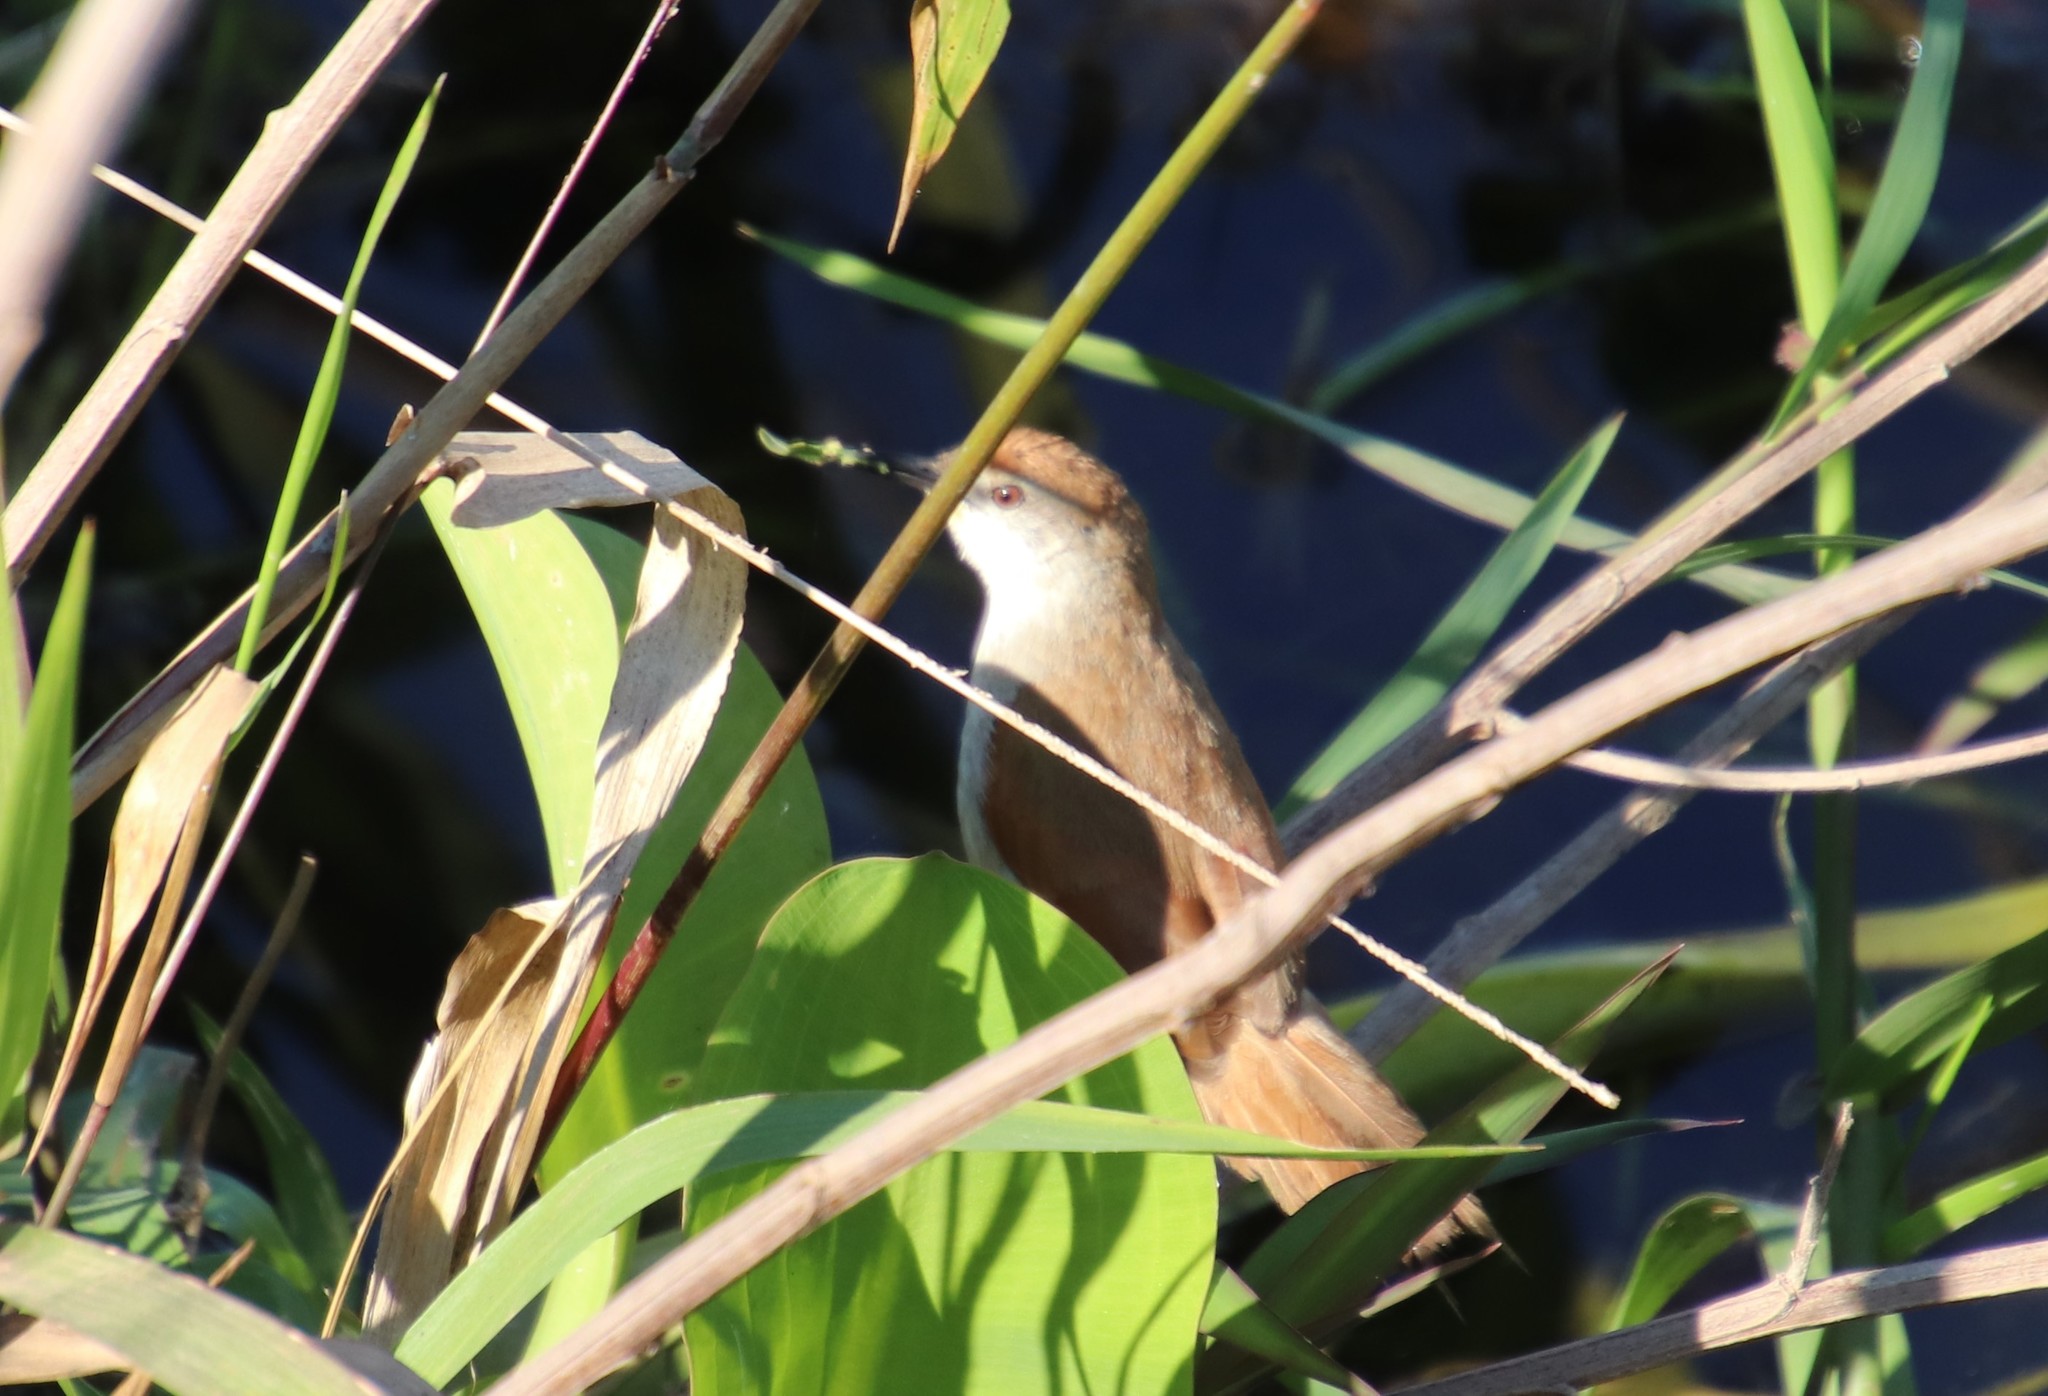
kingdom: Animalia
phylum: Chordata
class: Aves
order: Passeriformes
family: Furnariidae
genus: Certhiaxis
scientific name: Certhiaxis cinnamomeus
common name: Yellow-chinned spinetail
